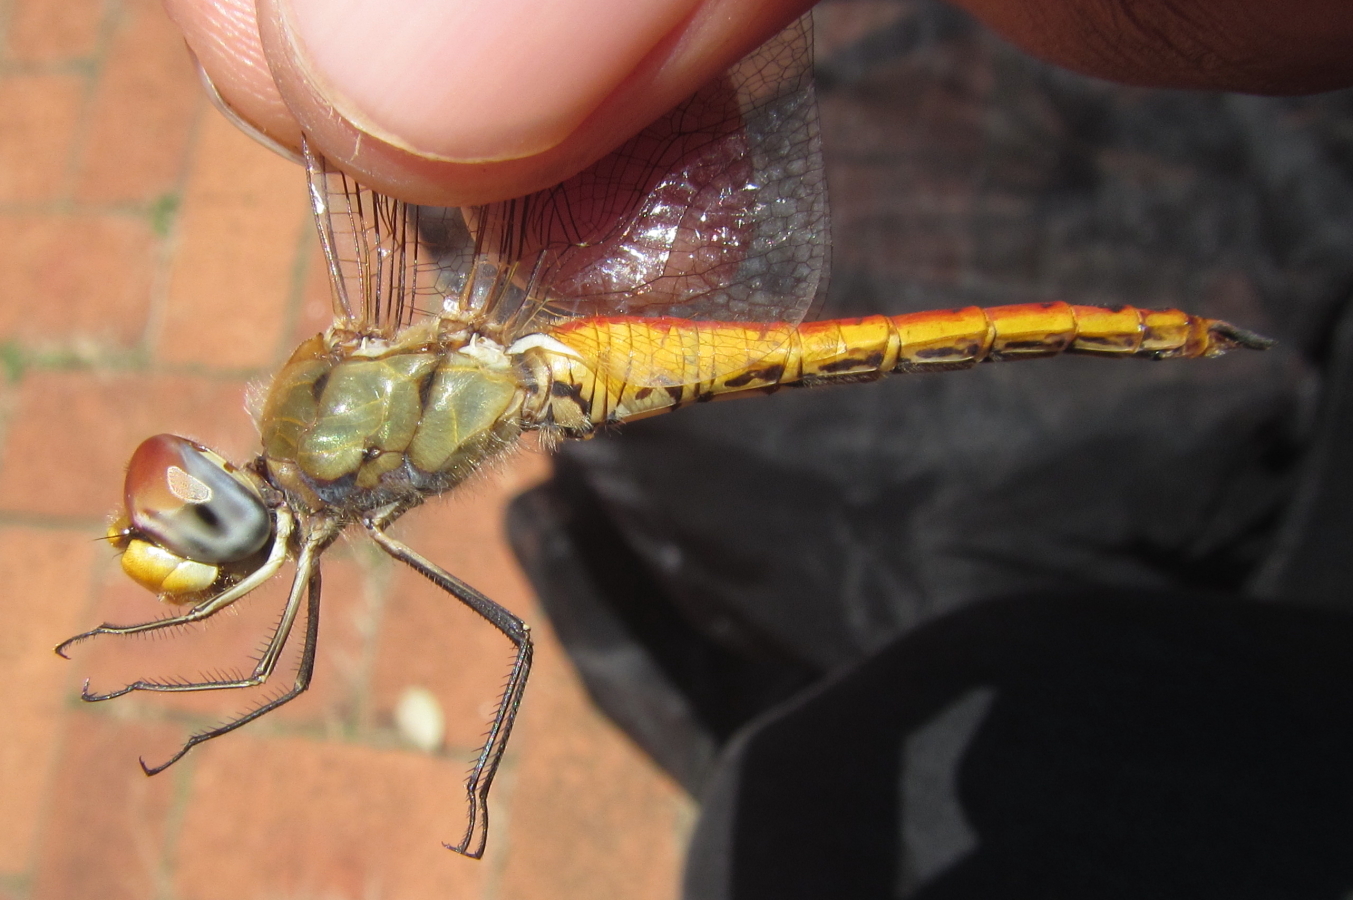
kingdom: Animalia
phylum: Arthropoda
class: Insecta
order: Odonata
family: Libellulidae
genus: Pantala
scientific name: Pantala flavescens
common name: Wandering glider
